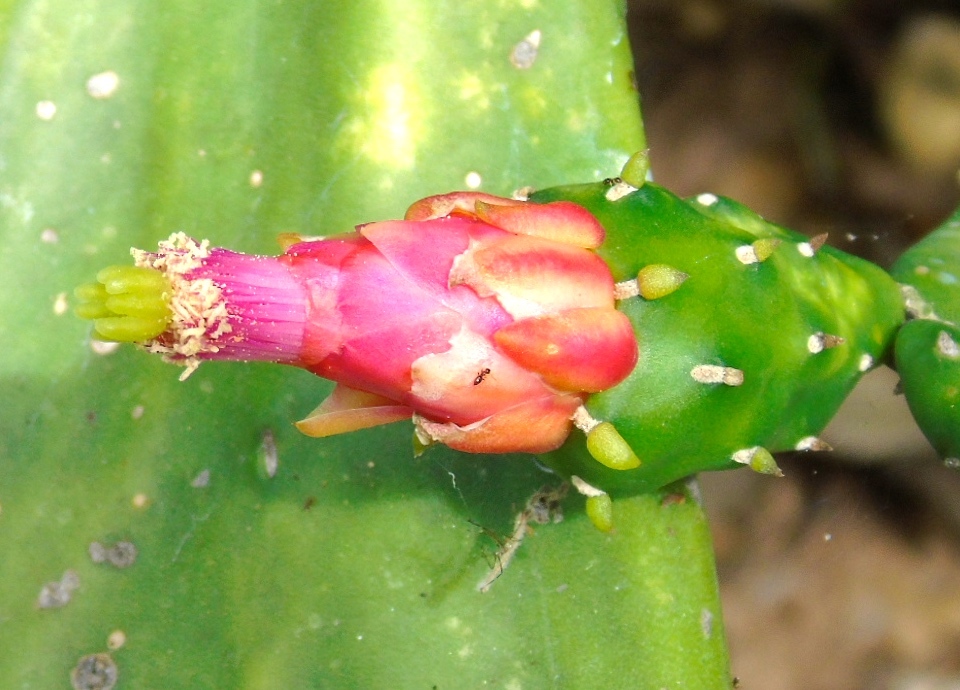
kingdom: Plantae
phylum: Tracheophyta
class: Magnoliopsida
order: Caryophyllales
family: Cactaceae
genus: Opuntia
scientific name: Opuntia cochenillifera
